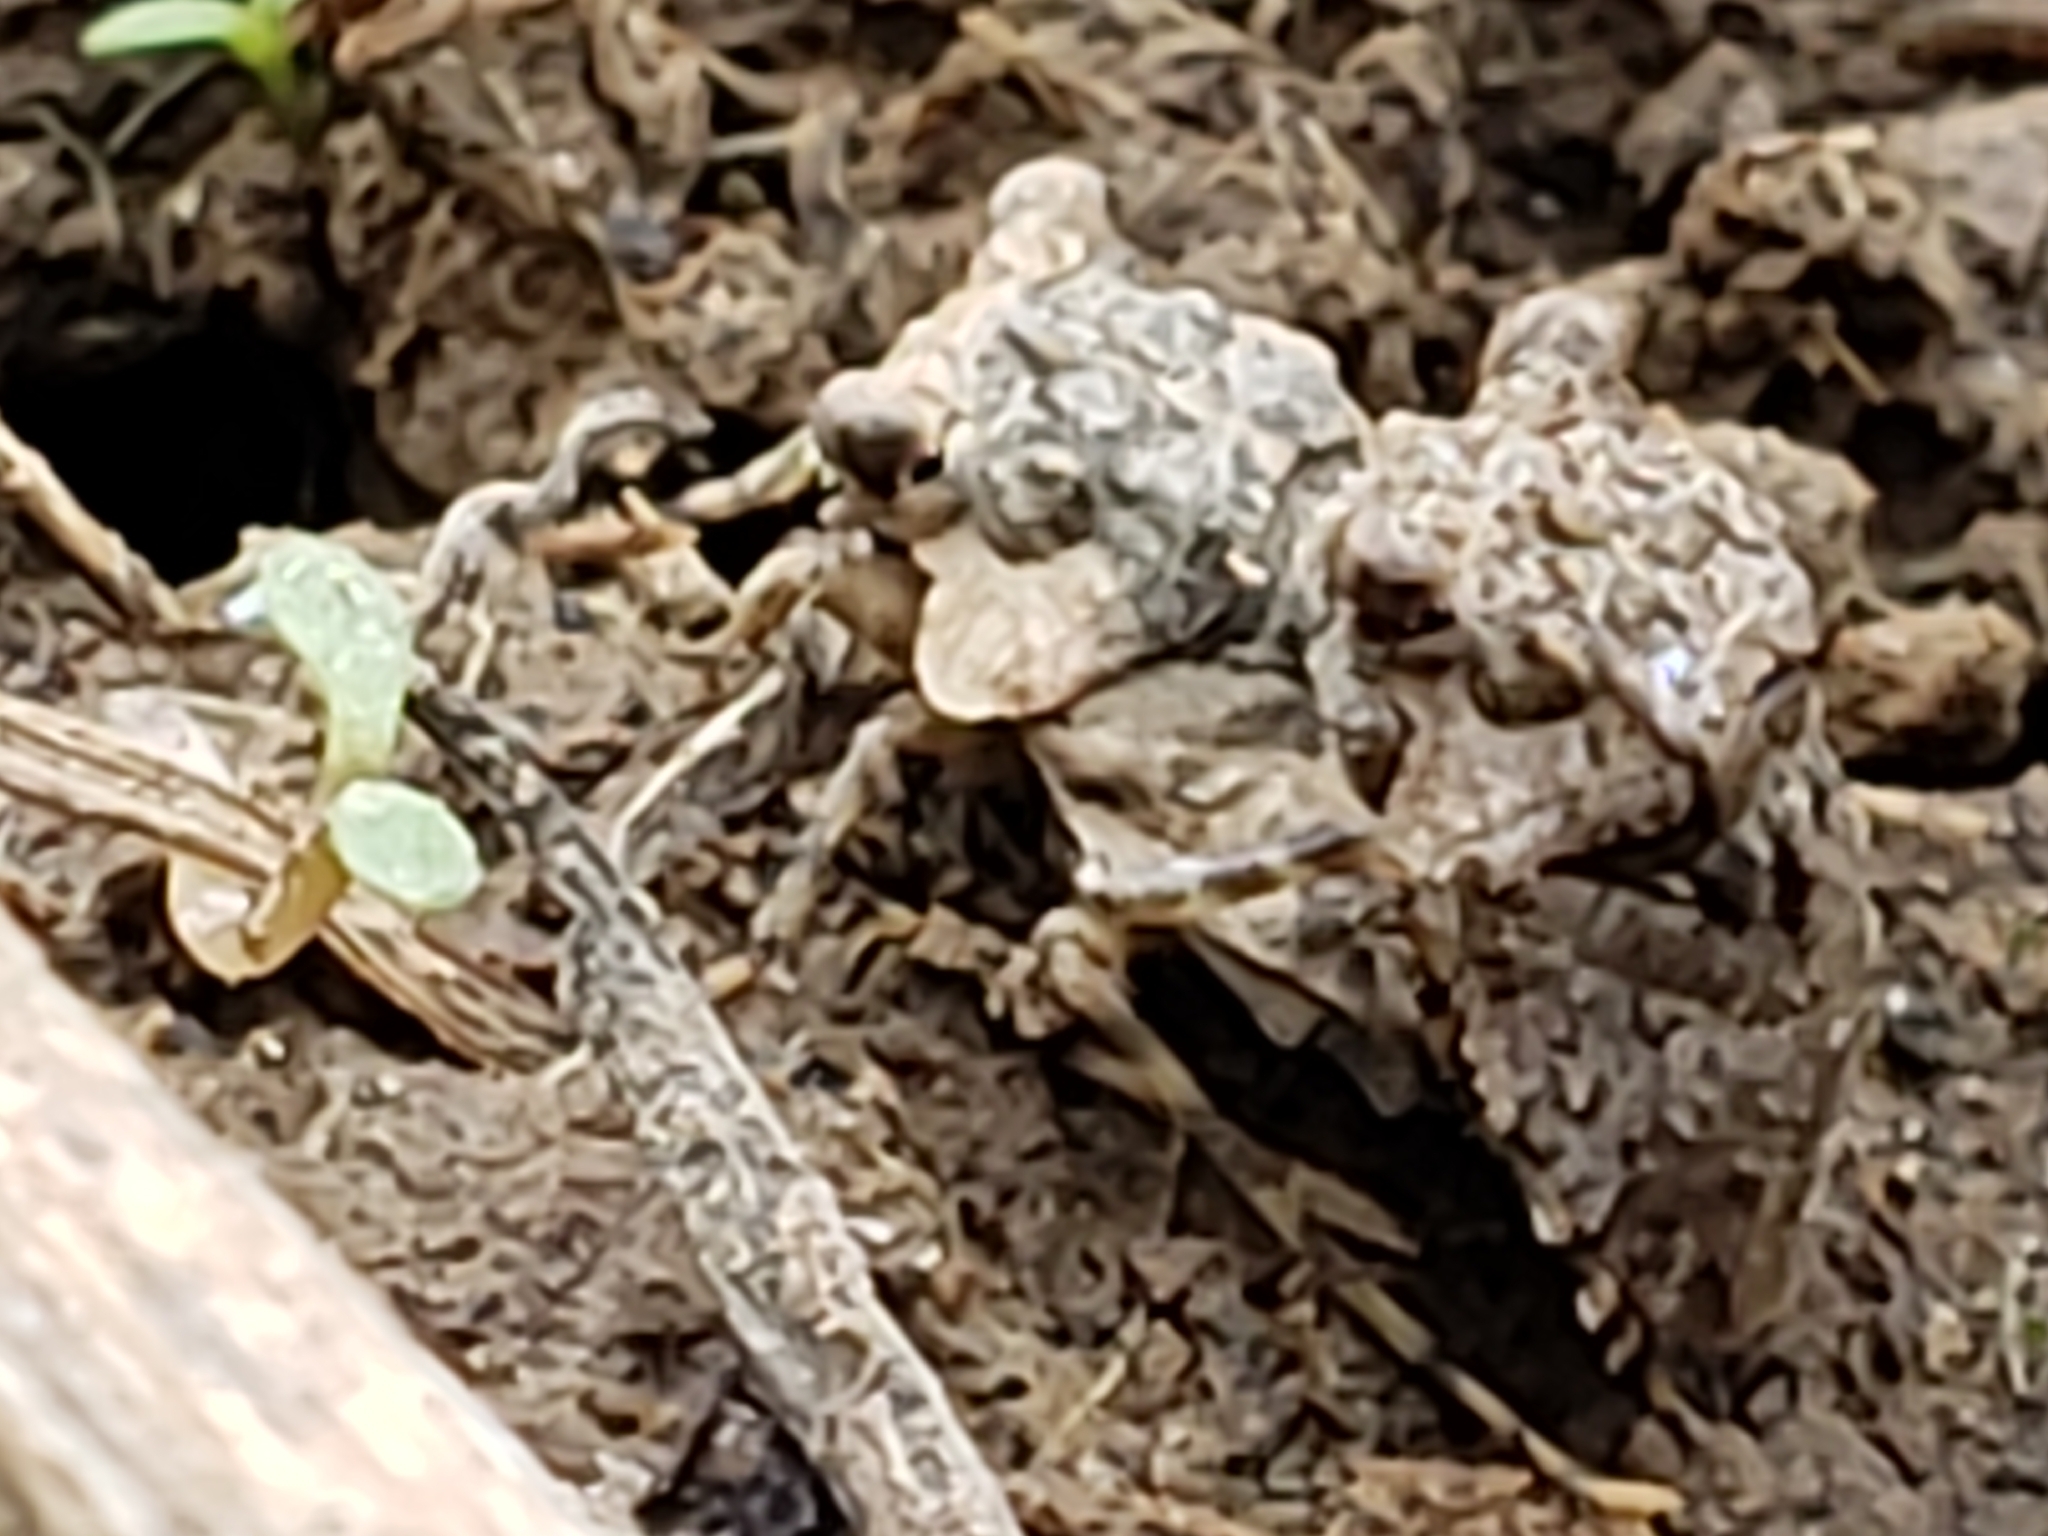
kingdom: Animalia
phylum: Arthropoda
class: Insecta
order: Hemiptera
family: Gelastocoridae
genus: Gelastocoris
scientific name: Gelastocoris oculatus
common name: Toad bug
